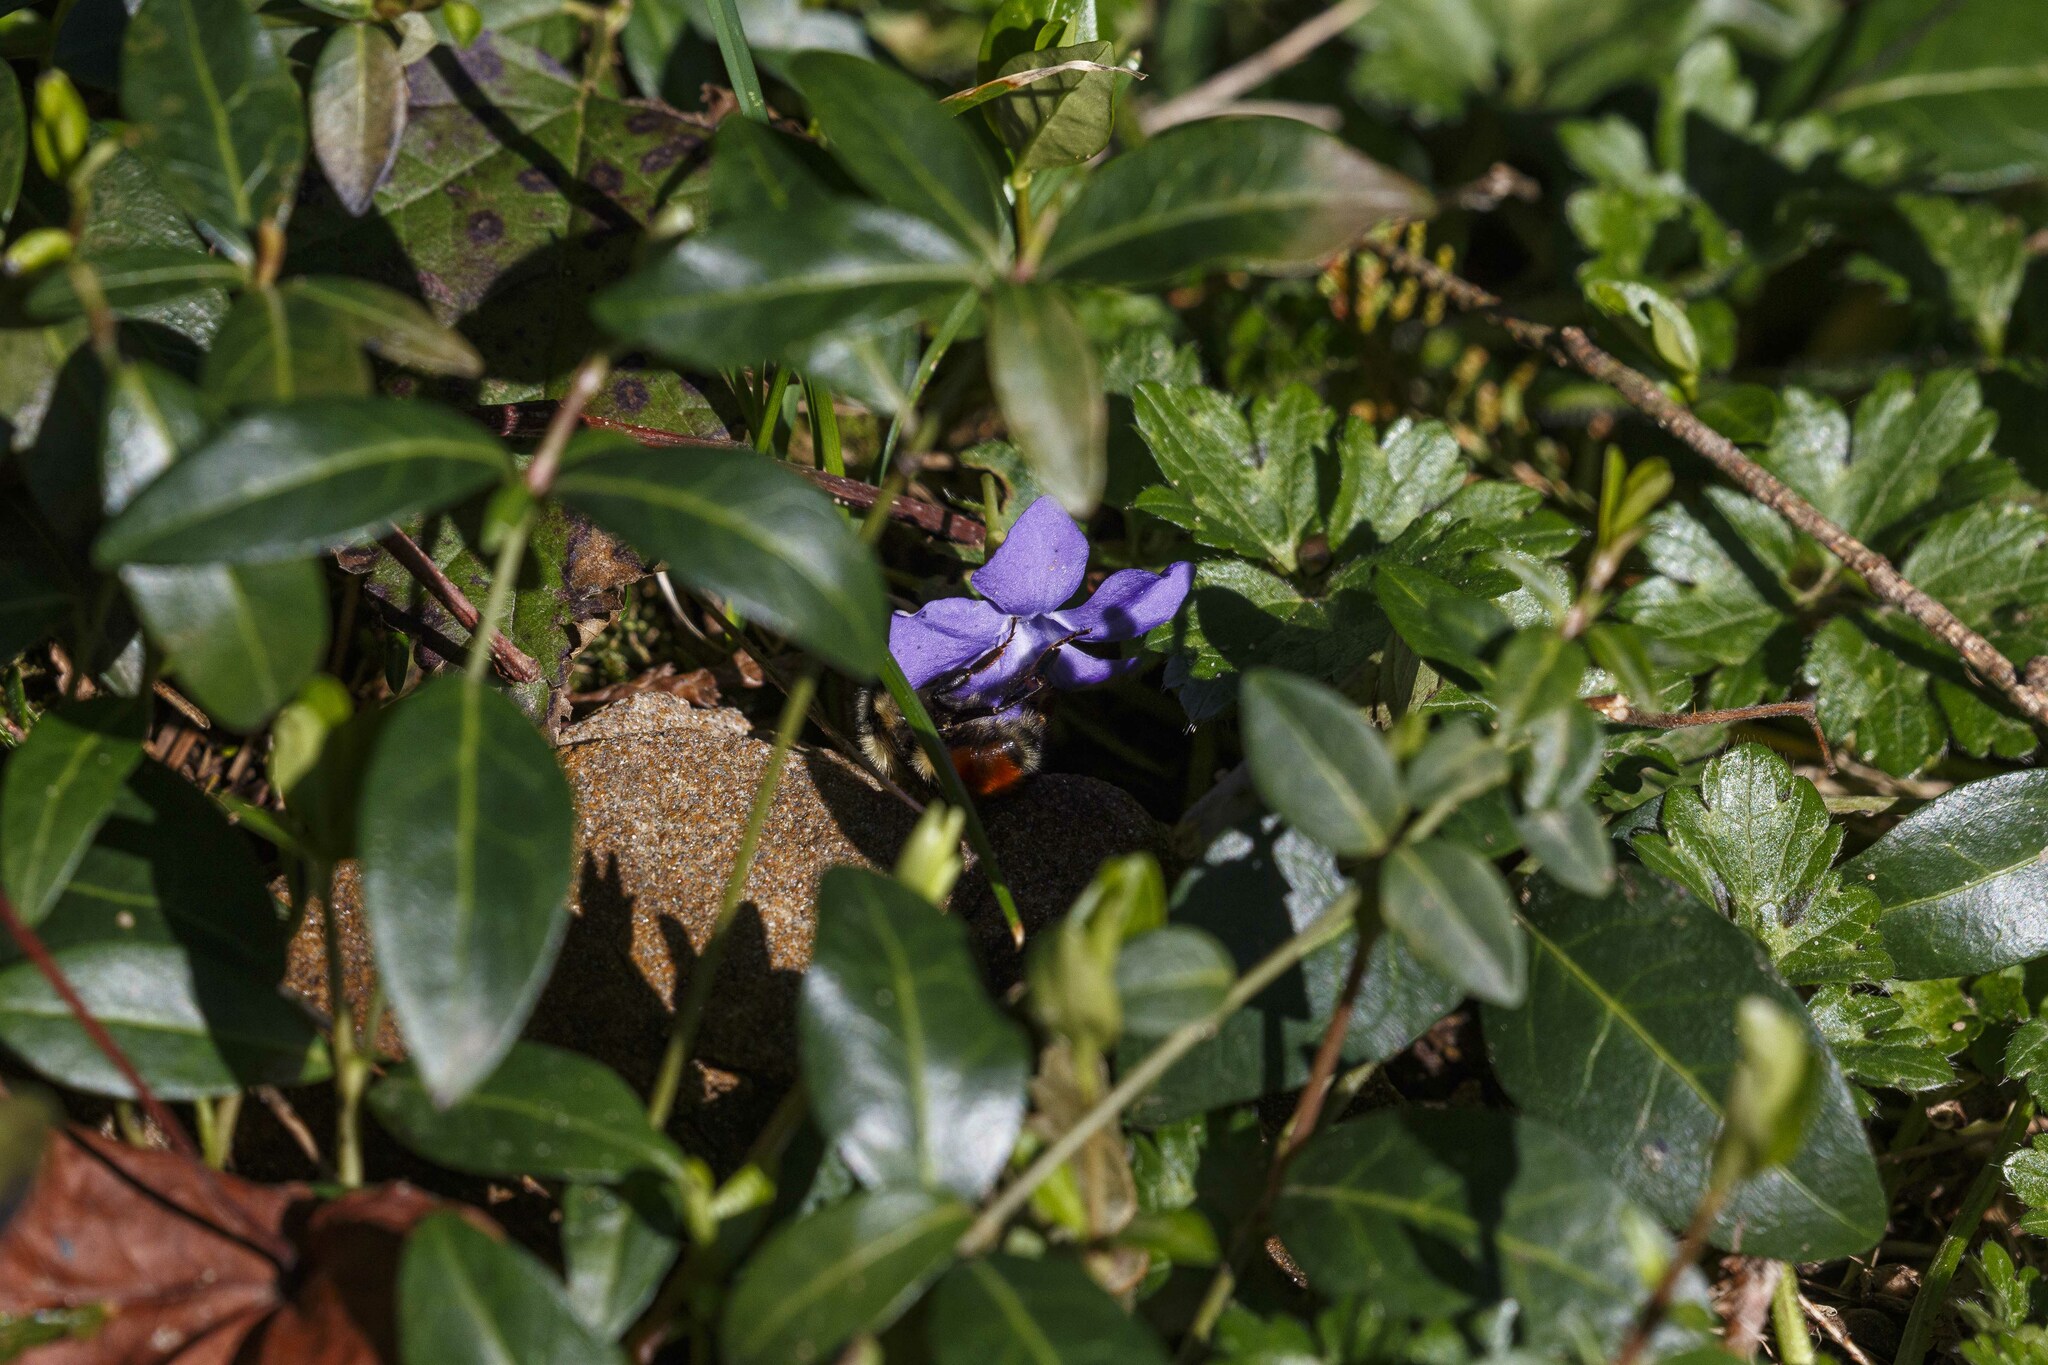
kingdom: Animalia
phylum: Arthropoda
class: Insecta
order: Hymenoptera
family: Apidae
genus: Bombus
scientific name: Bombus melanopygus
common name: Black tail bumble bee
